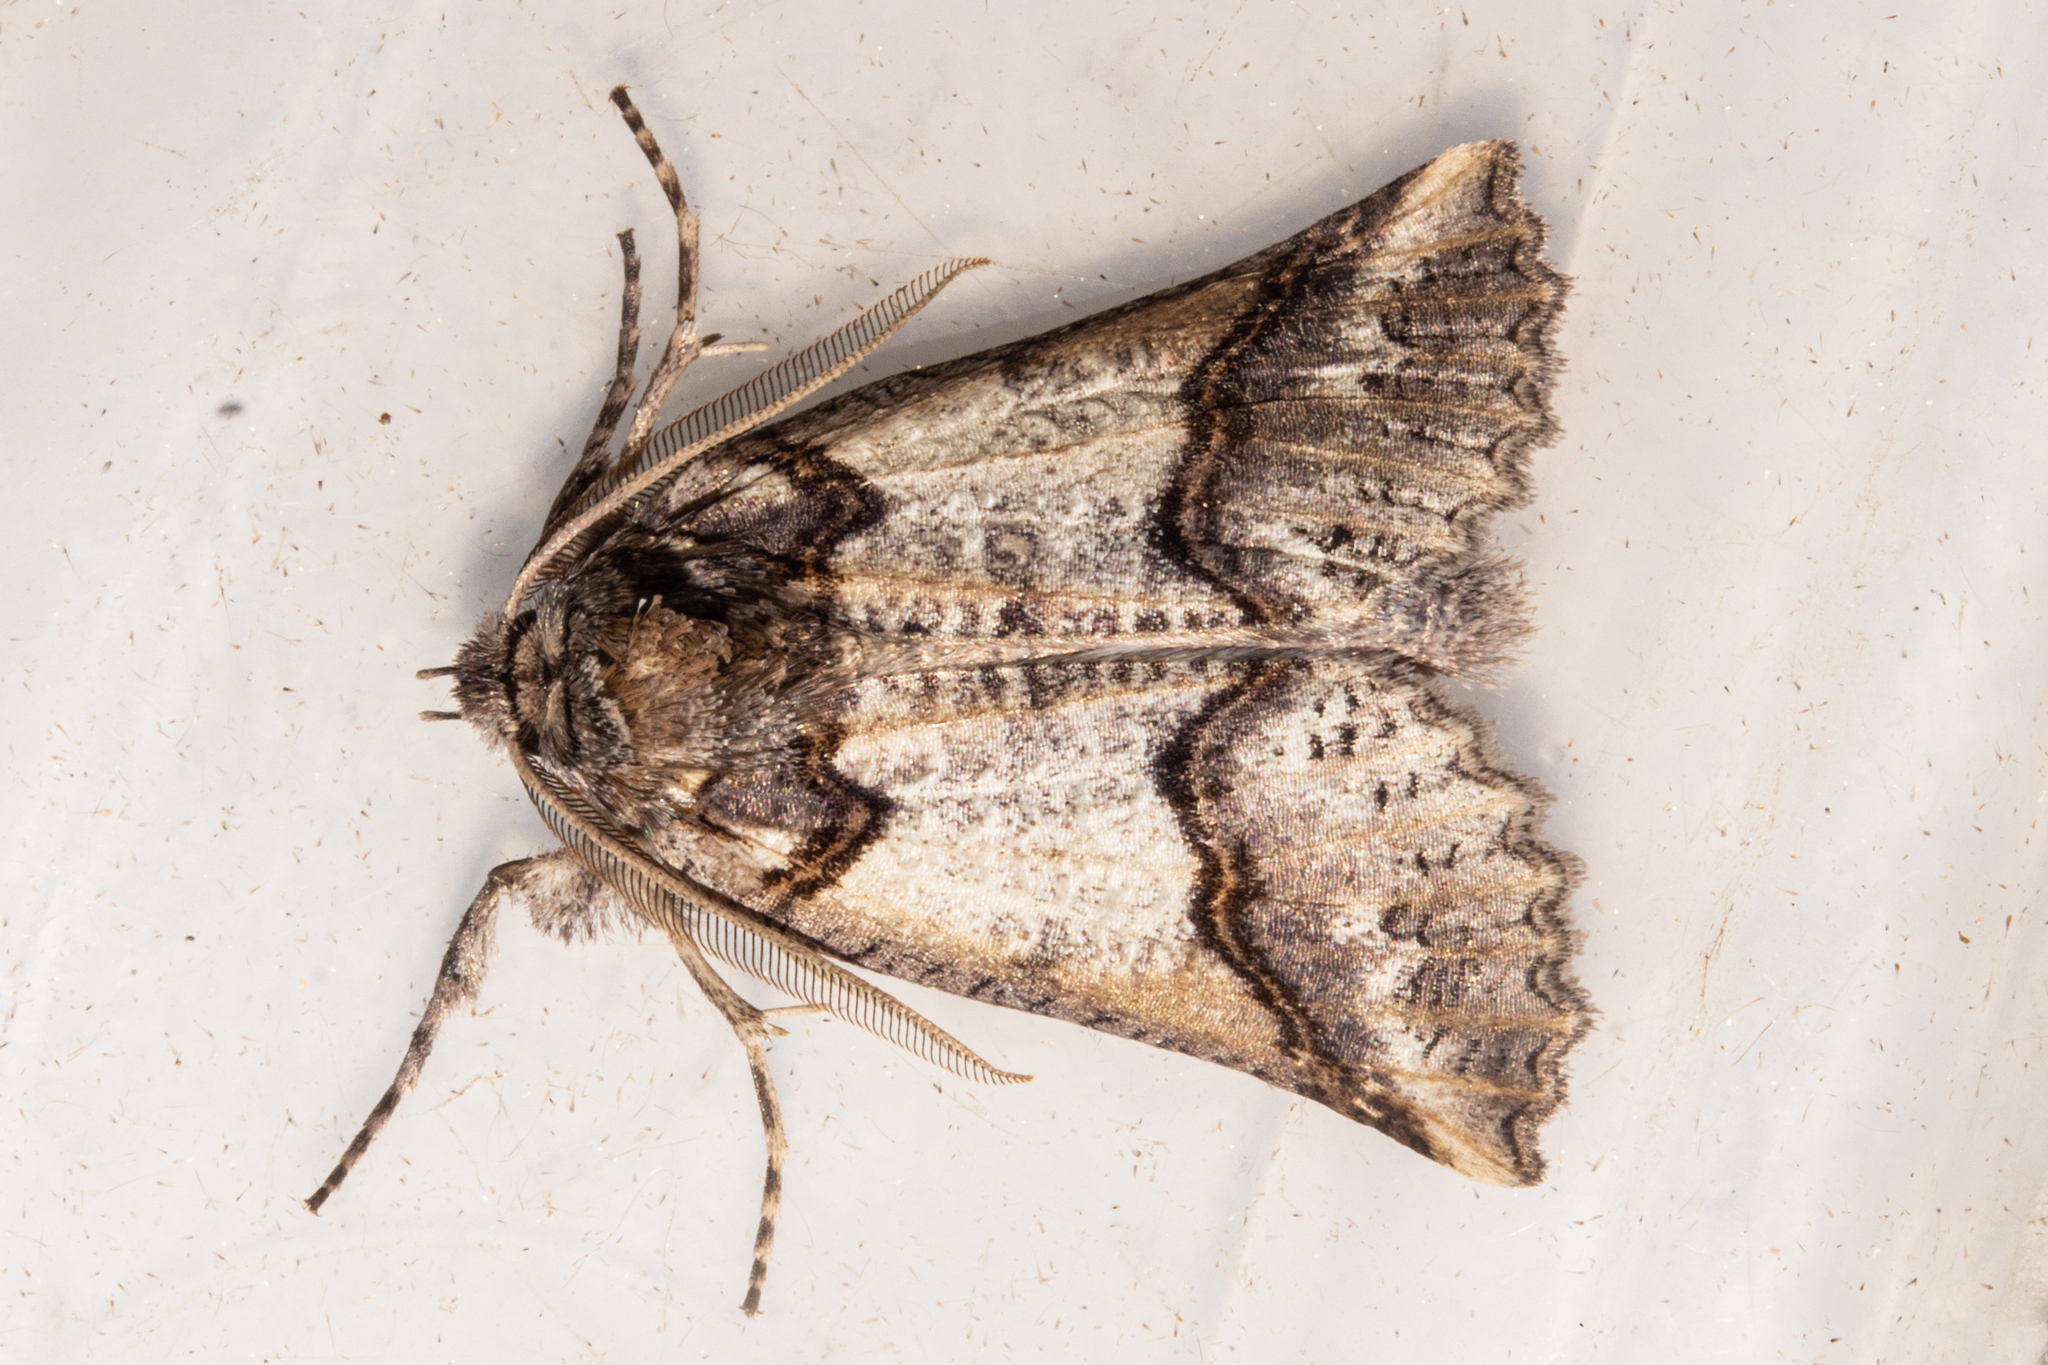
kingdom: Animalia
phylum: Arthropoda
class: Insecta
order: Lepidoptera
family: Geometridae
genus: Declana
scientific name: Declana
